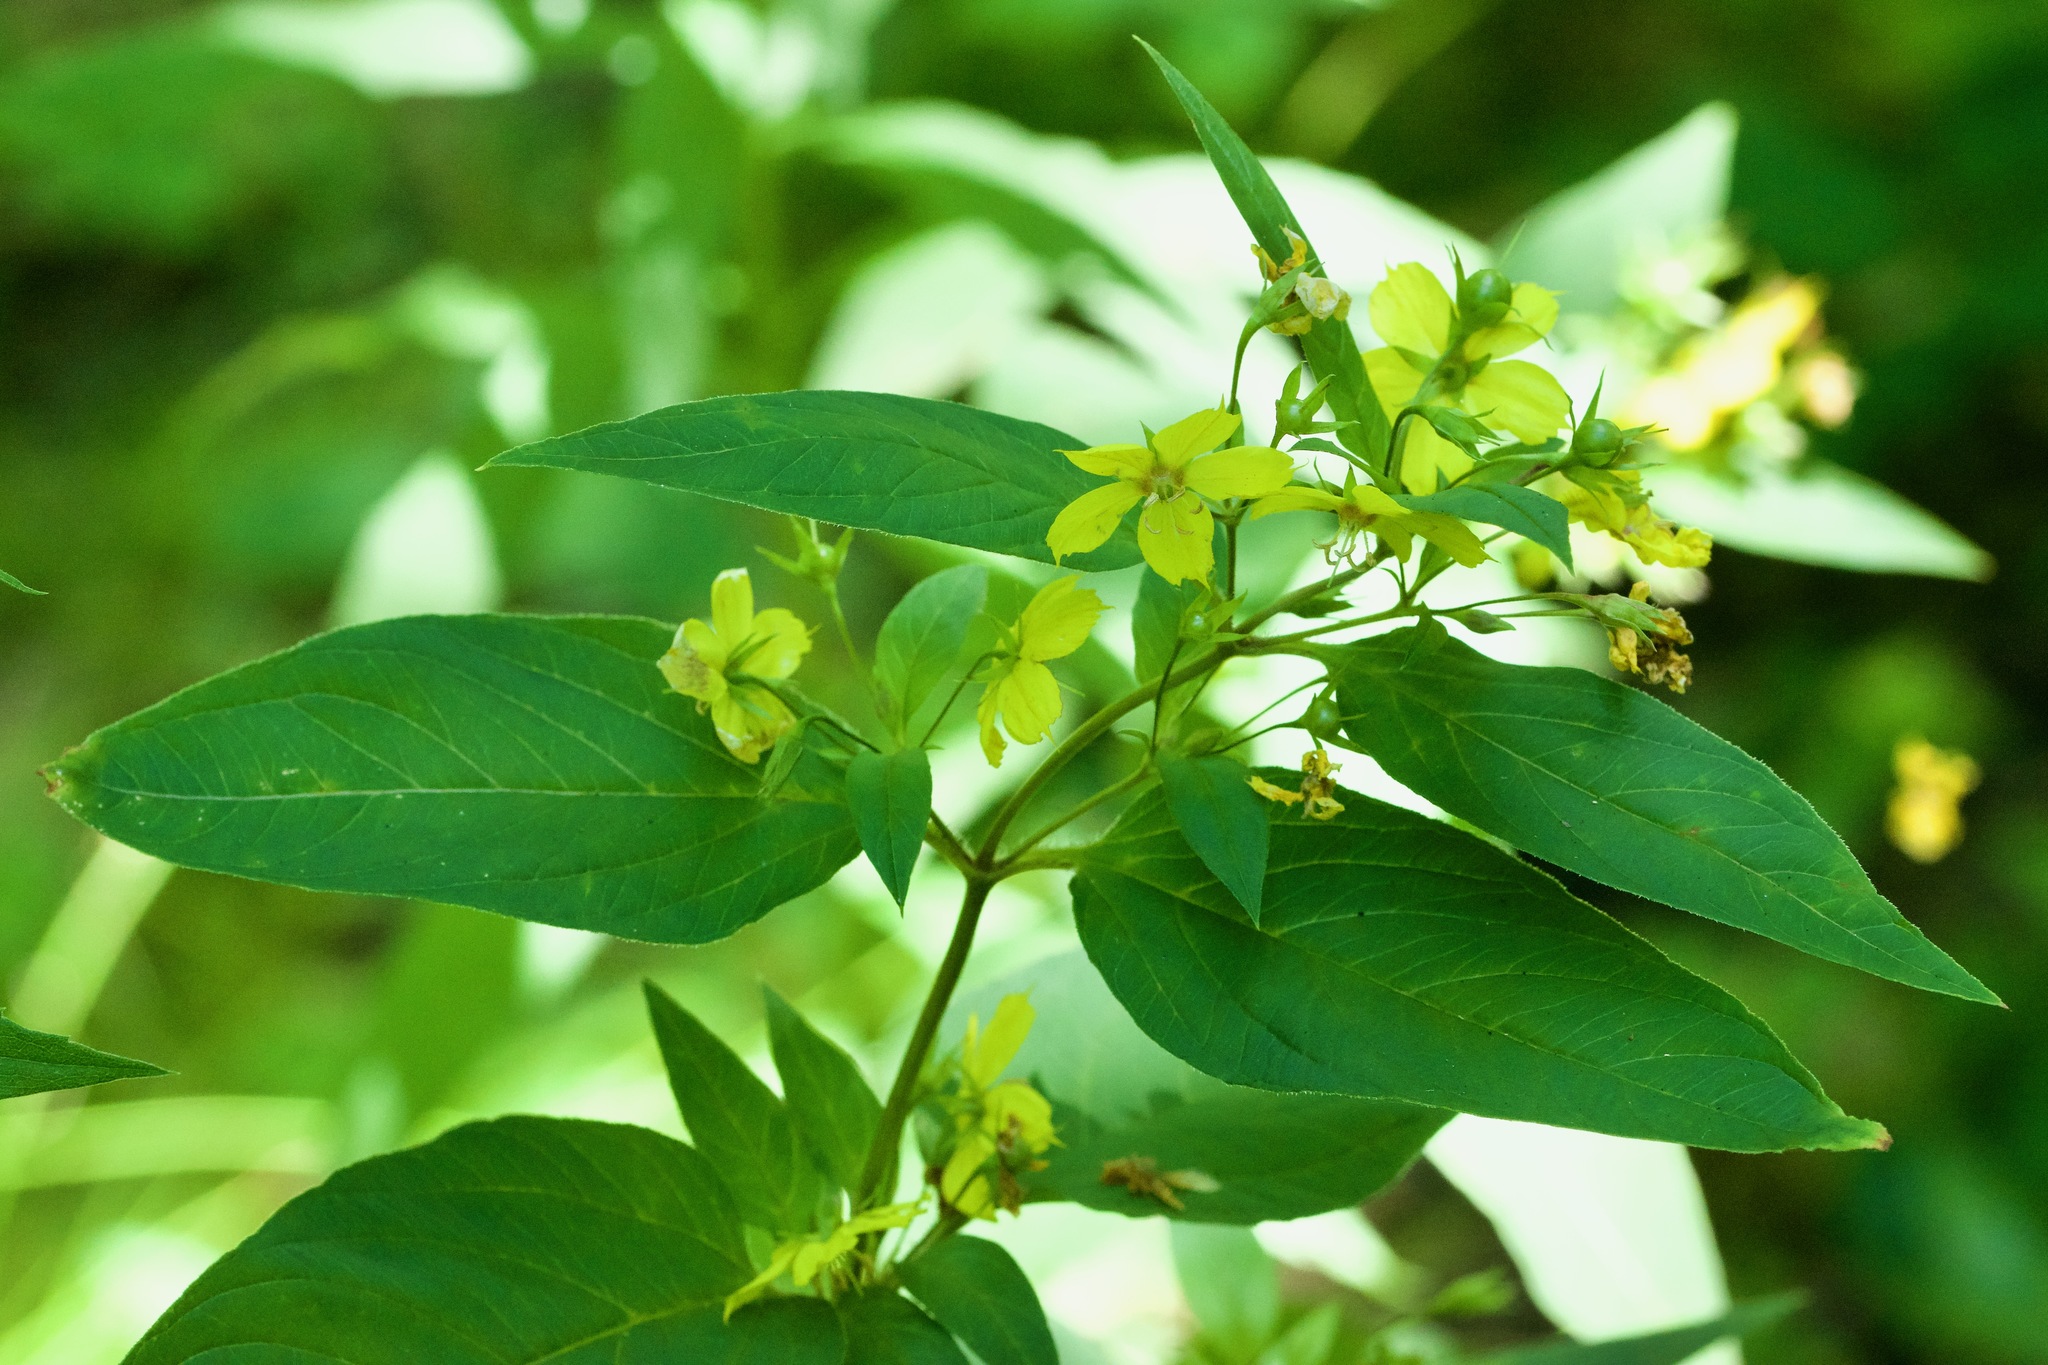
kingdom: Plantae
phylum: Tracheophyta
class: Magnoliopsida
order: Ericales
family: Primulaceae
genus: Lysimachia
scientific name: Lysimachia ciliata
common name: Fringed loosestrife
